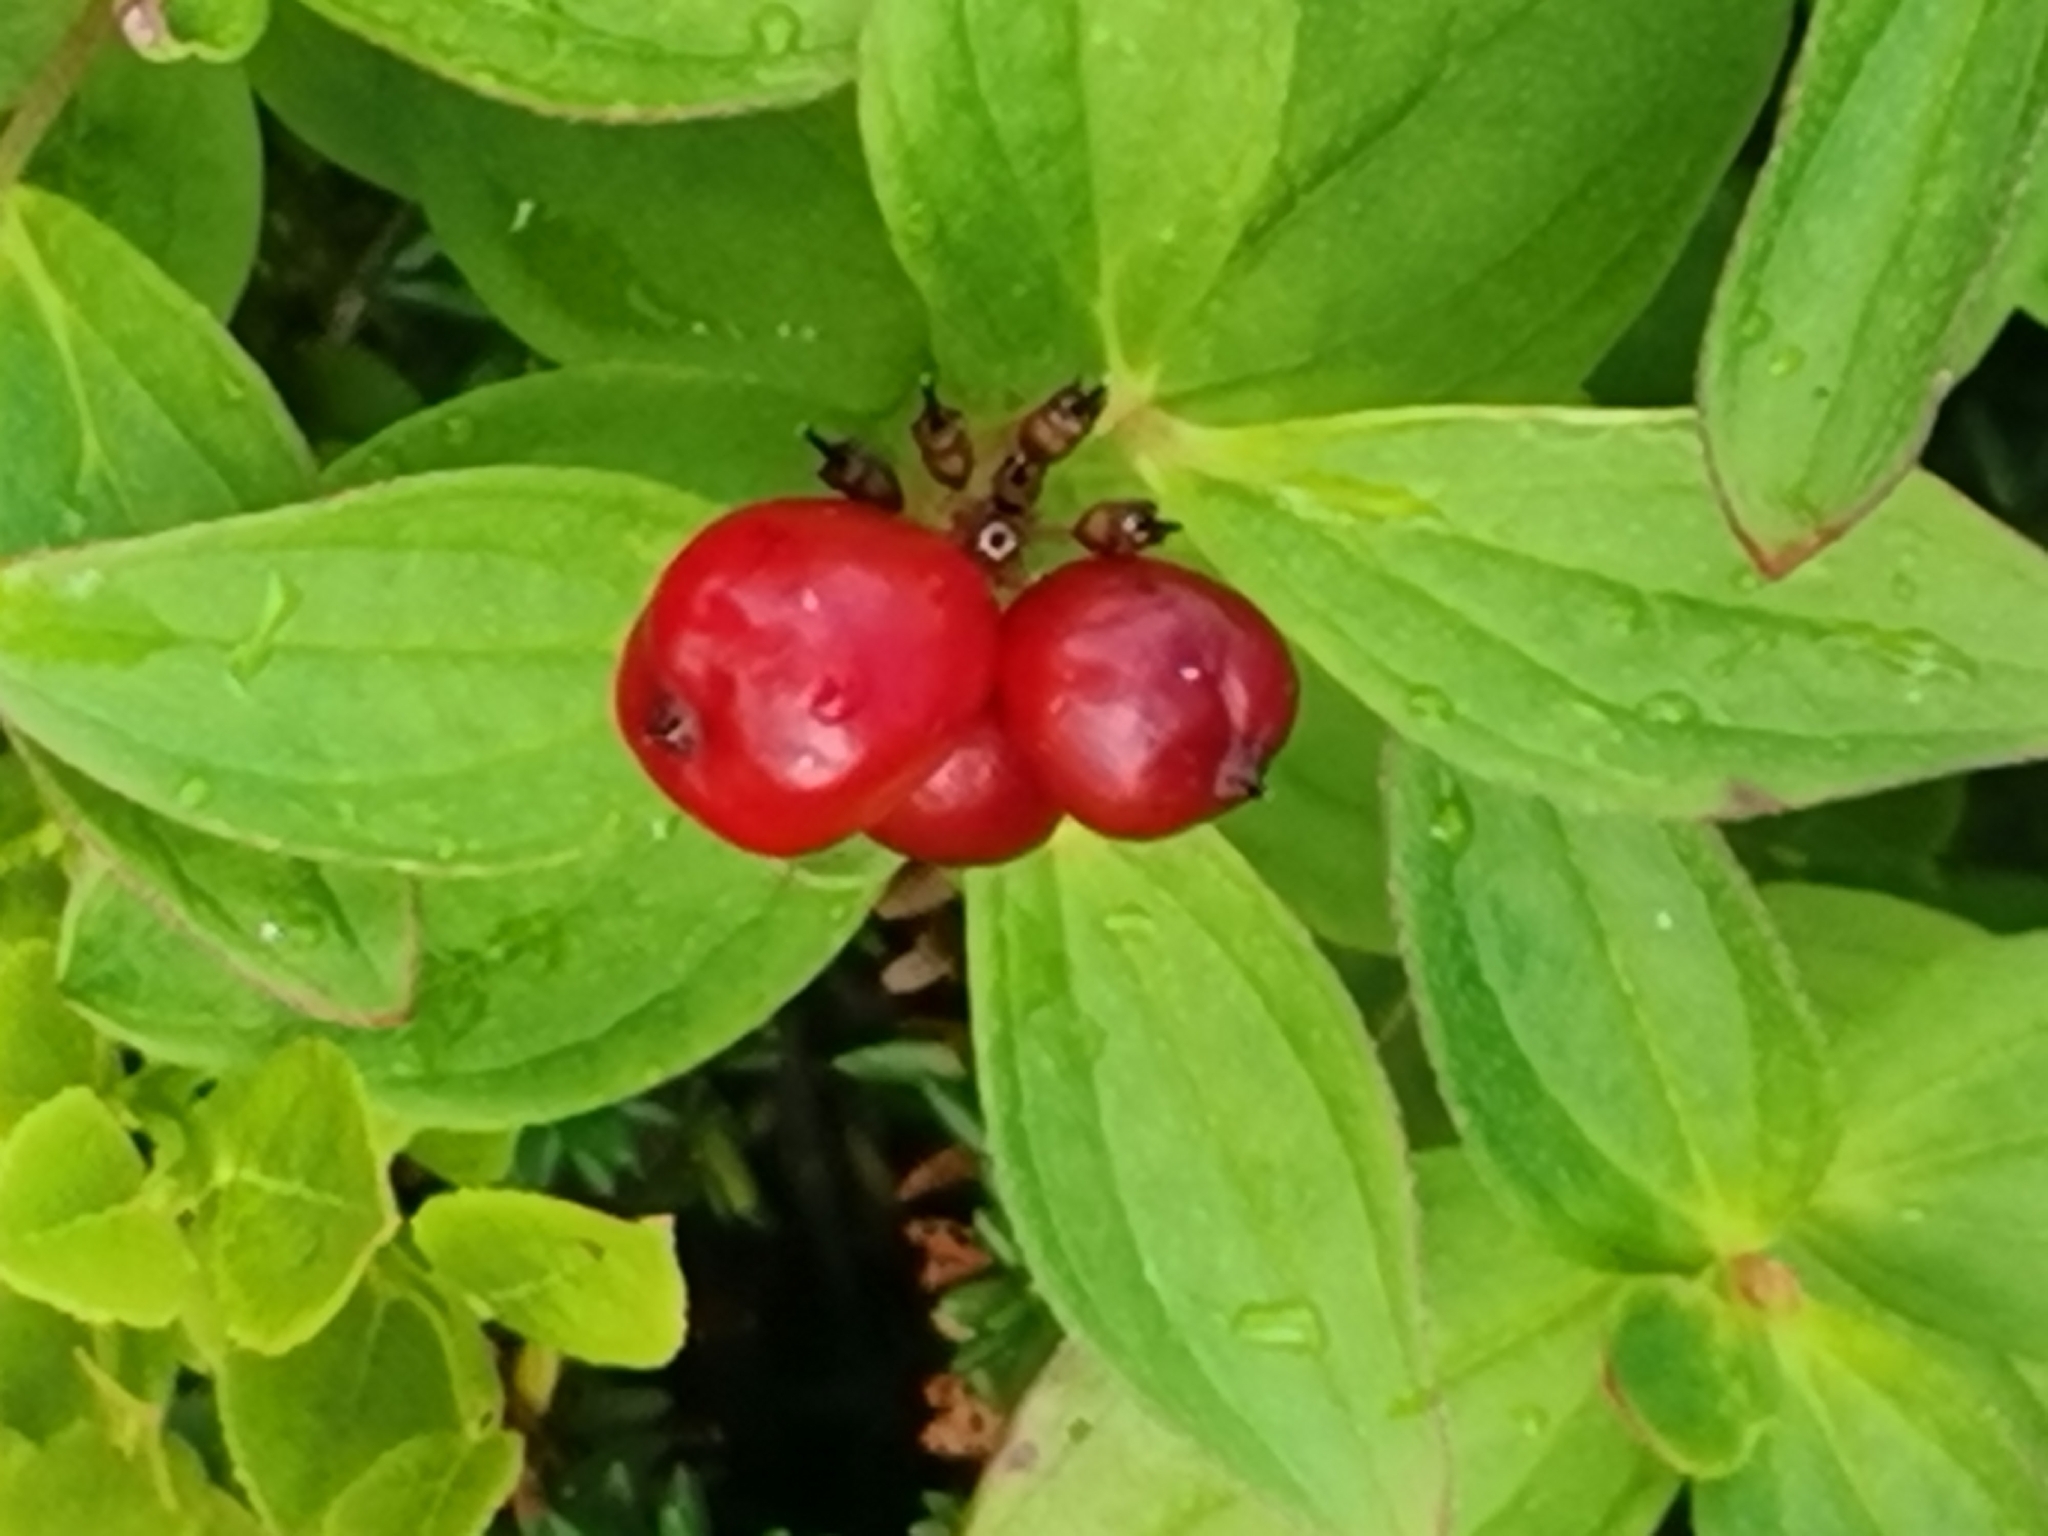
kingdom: Plantae
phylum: Tracheophyta
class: Magnoliopsida
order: Cornales
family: Cornaceae
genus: Cornus
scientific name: Cornus suecica
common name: Dwarf cornel
